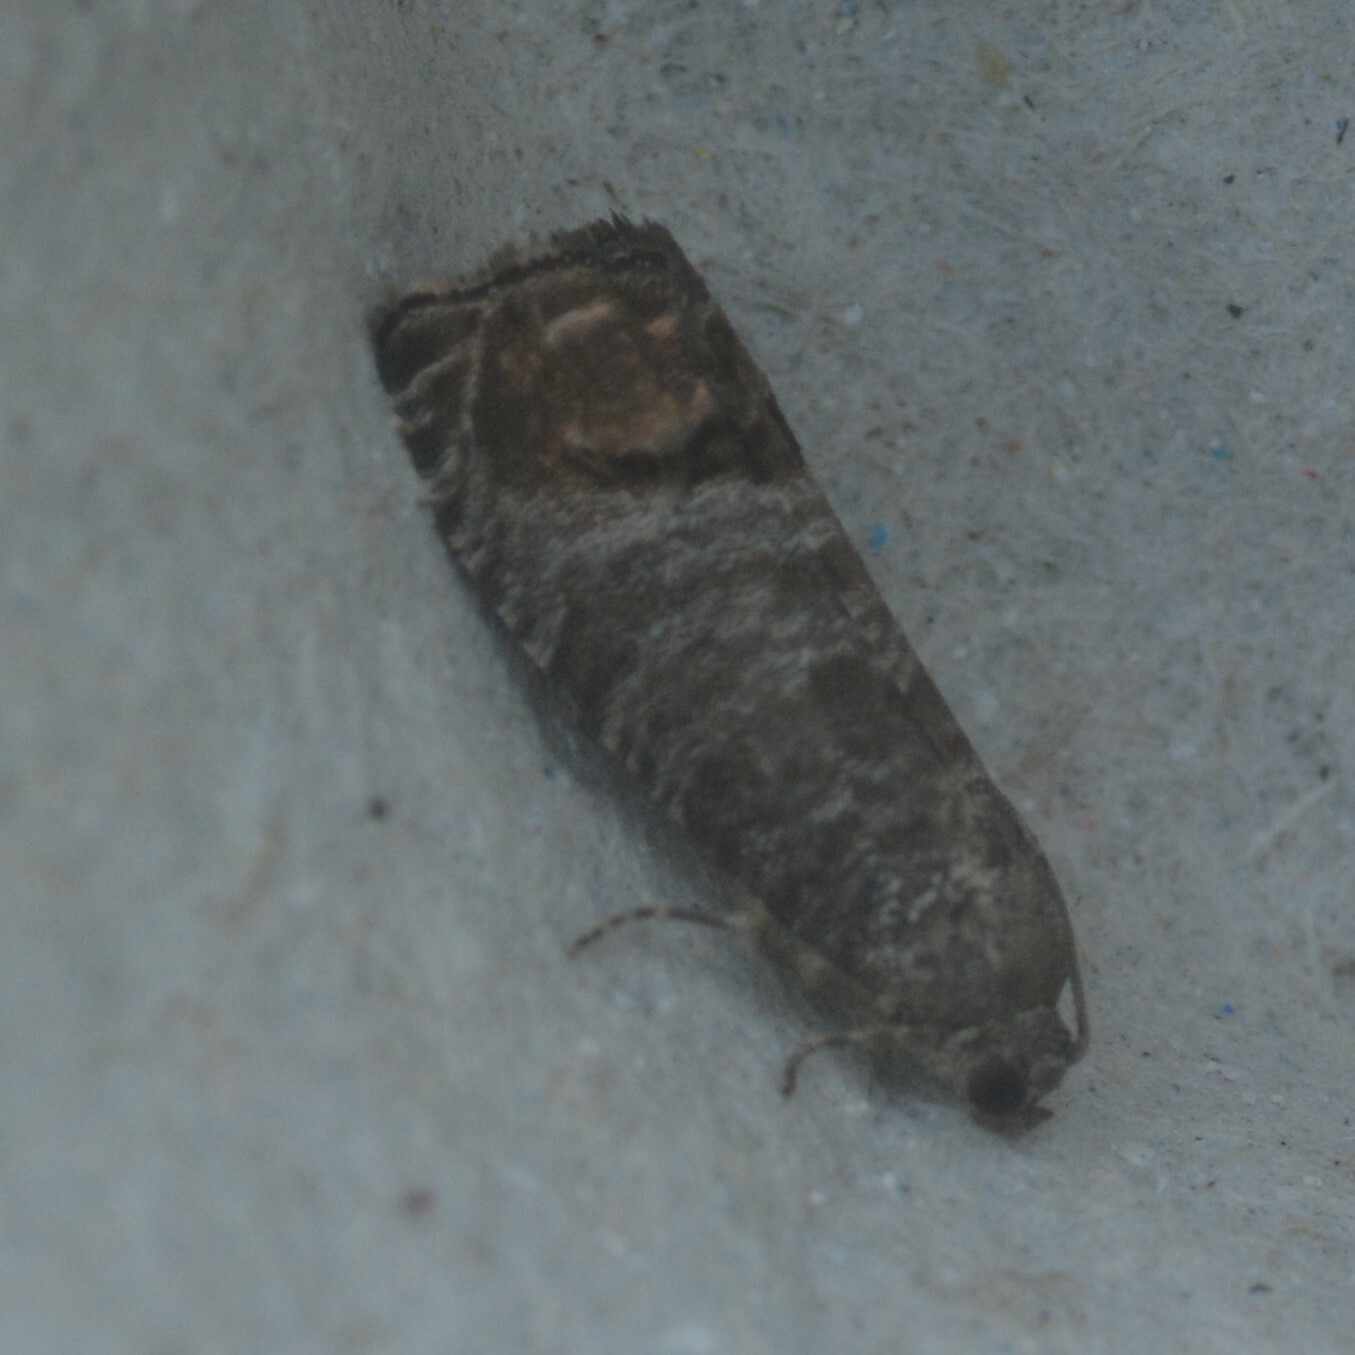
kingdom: Animalia
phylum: Arthropoda
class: Insecta
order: Lepidoptera
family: Tortricidae
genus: Cydia
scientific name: Cydia pomonella
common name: Codling moth
